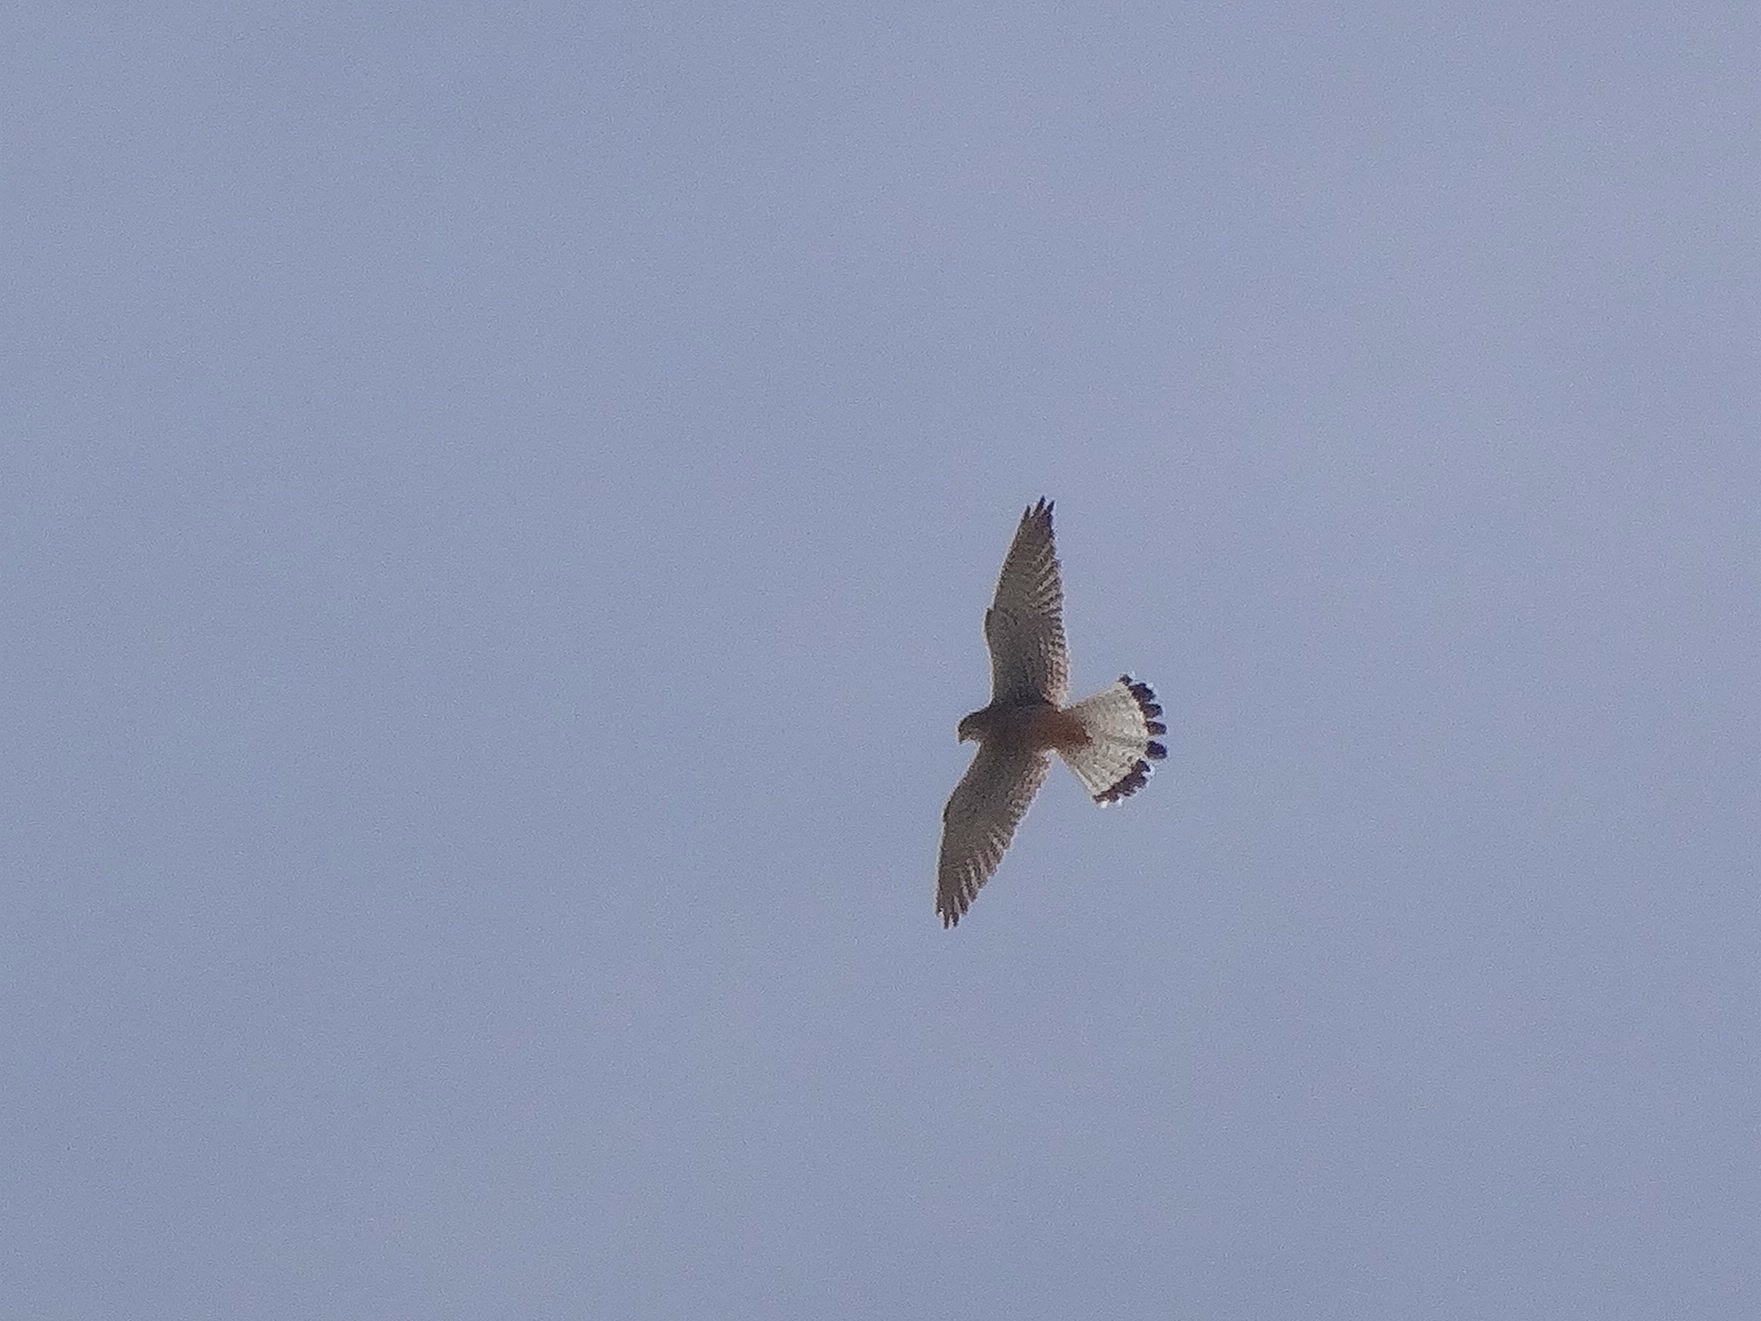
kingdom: Animalia
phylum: Chordata
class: Aves
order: Falconiformes
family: Falconidae
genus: Falco
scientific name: Falco tinnunculus
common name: Common kestrel
